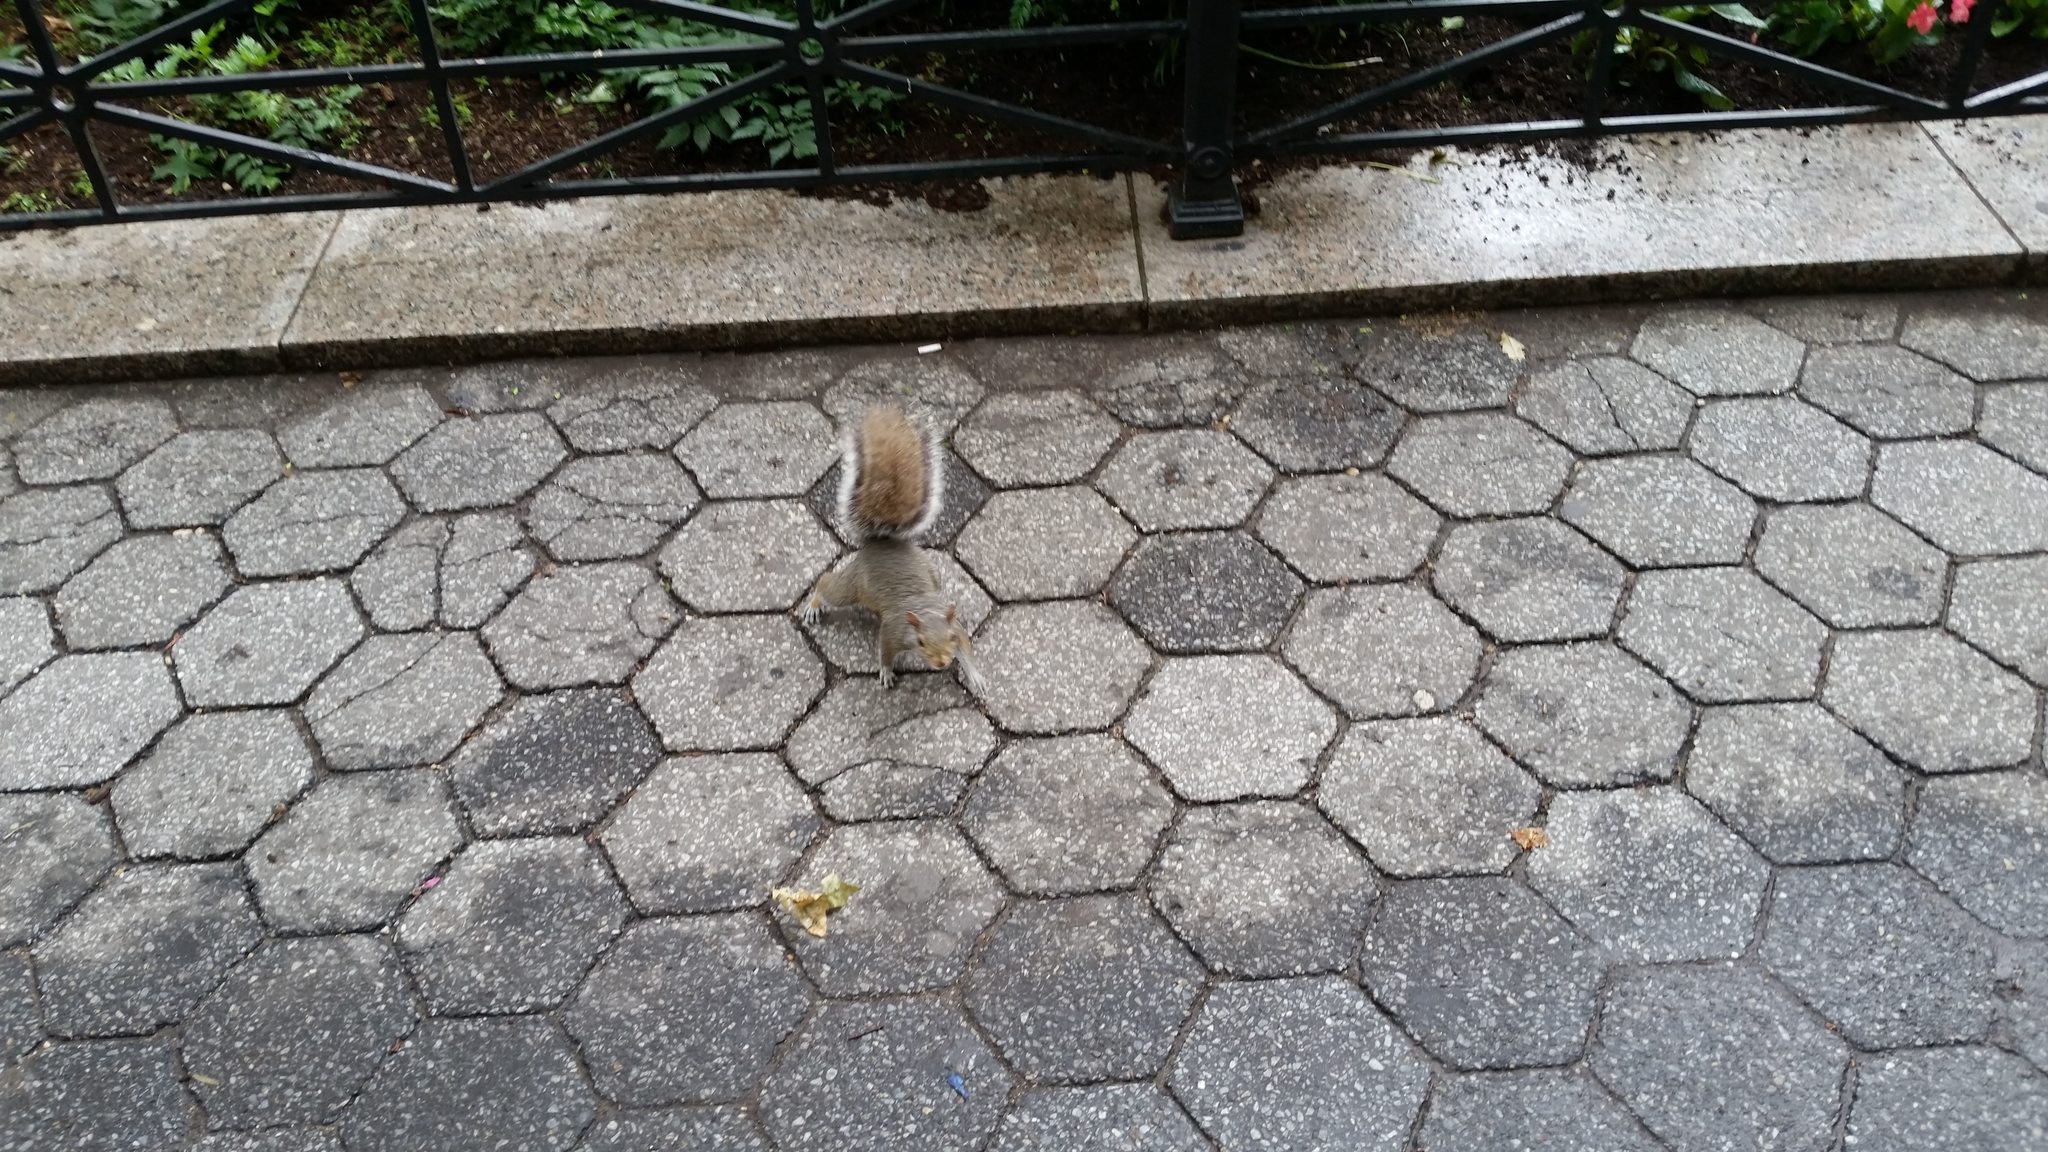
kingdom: Animalia
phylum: Chordata
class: Mammalia
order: Rodentia
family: Sciuridae
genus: Sciurus
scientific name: Sciurus carolinensis
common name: Eastern gray squirrel
